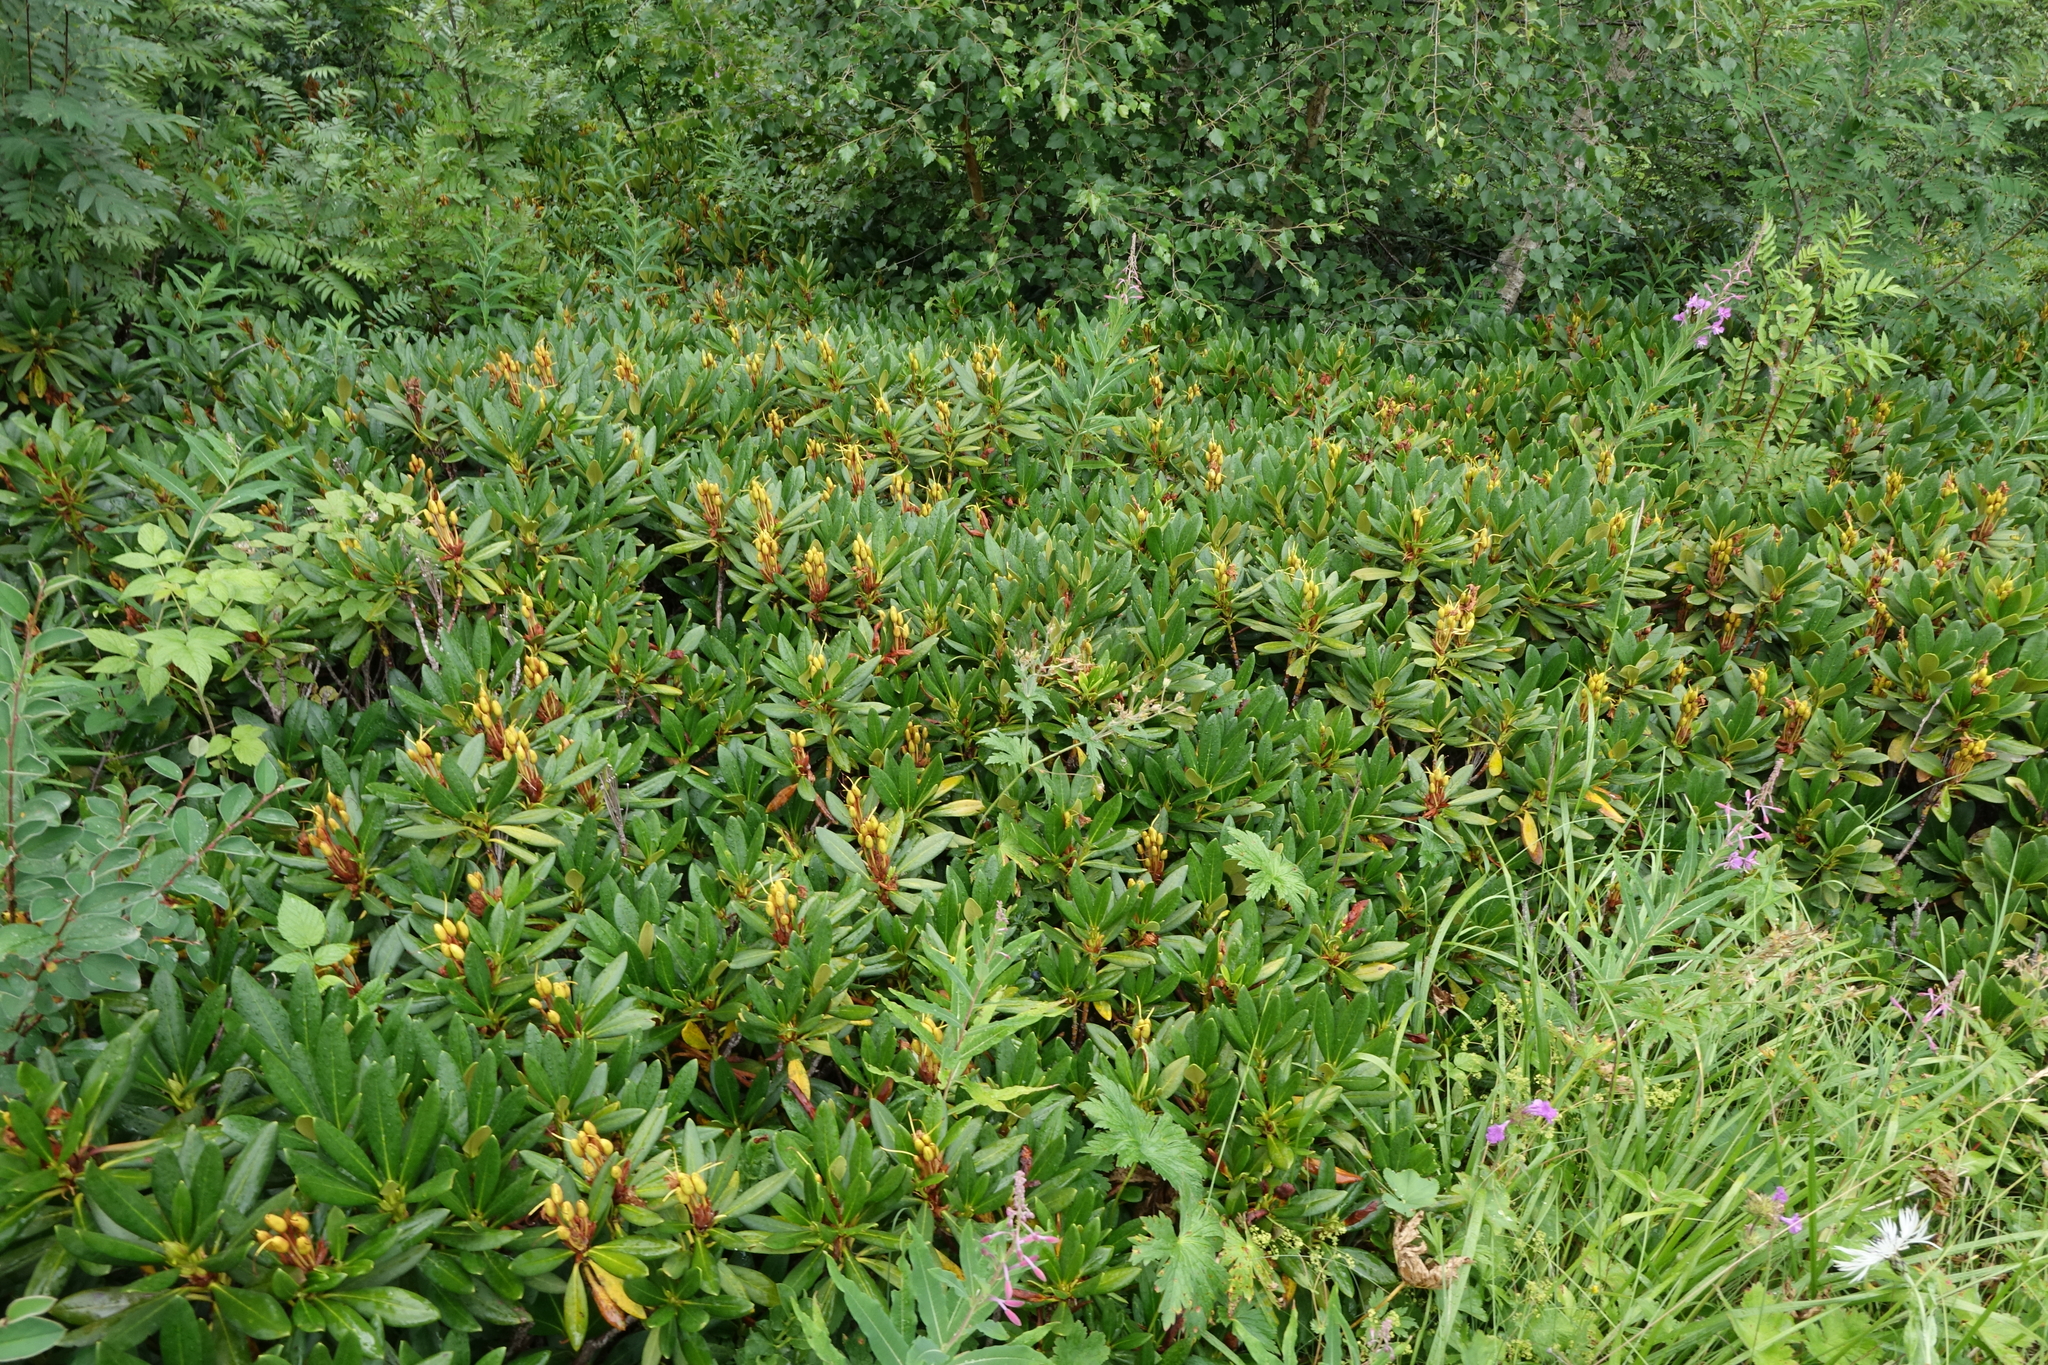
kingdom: Plantae
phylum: Tracheophyta
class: Magnoliopsida
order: Ericales
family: Ericaceae
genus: Rhododendron
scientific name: Rhododendron caucasicum
